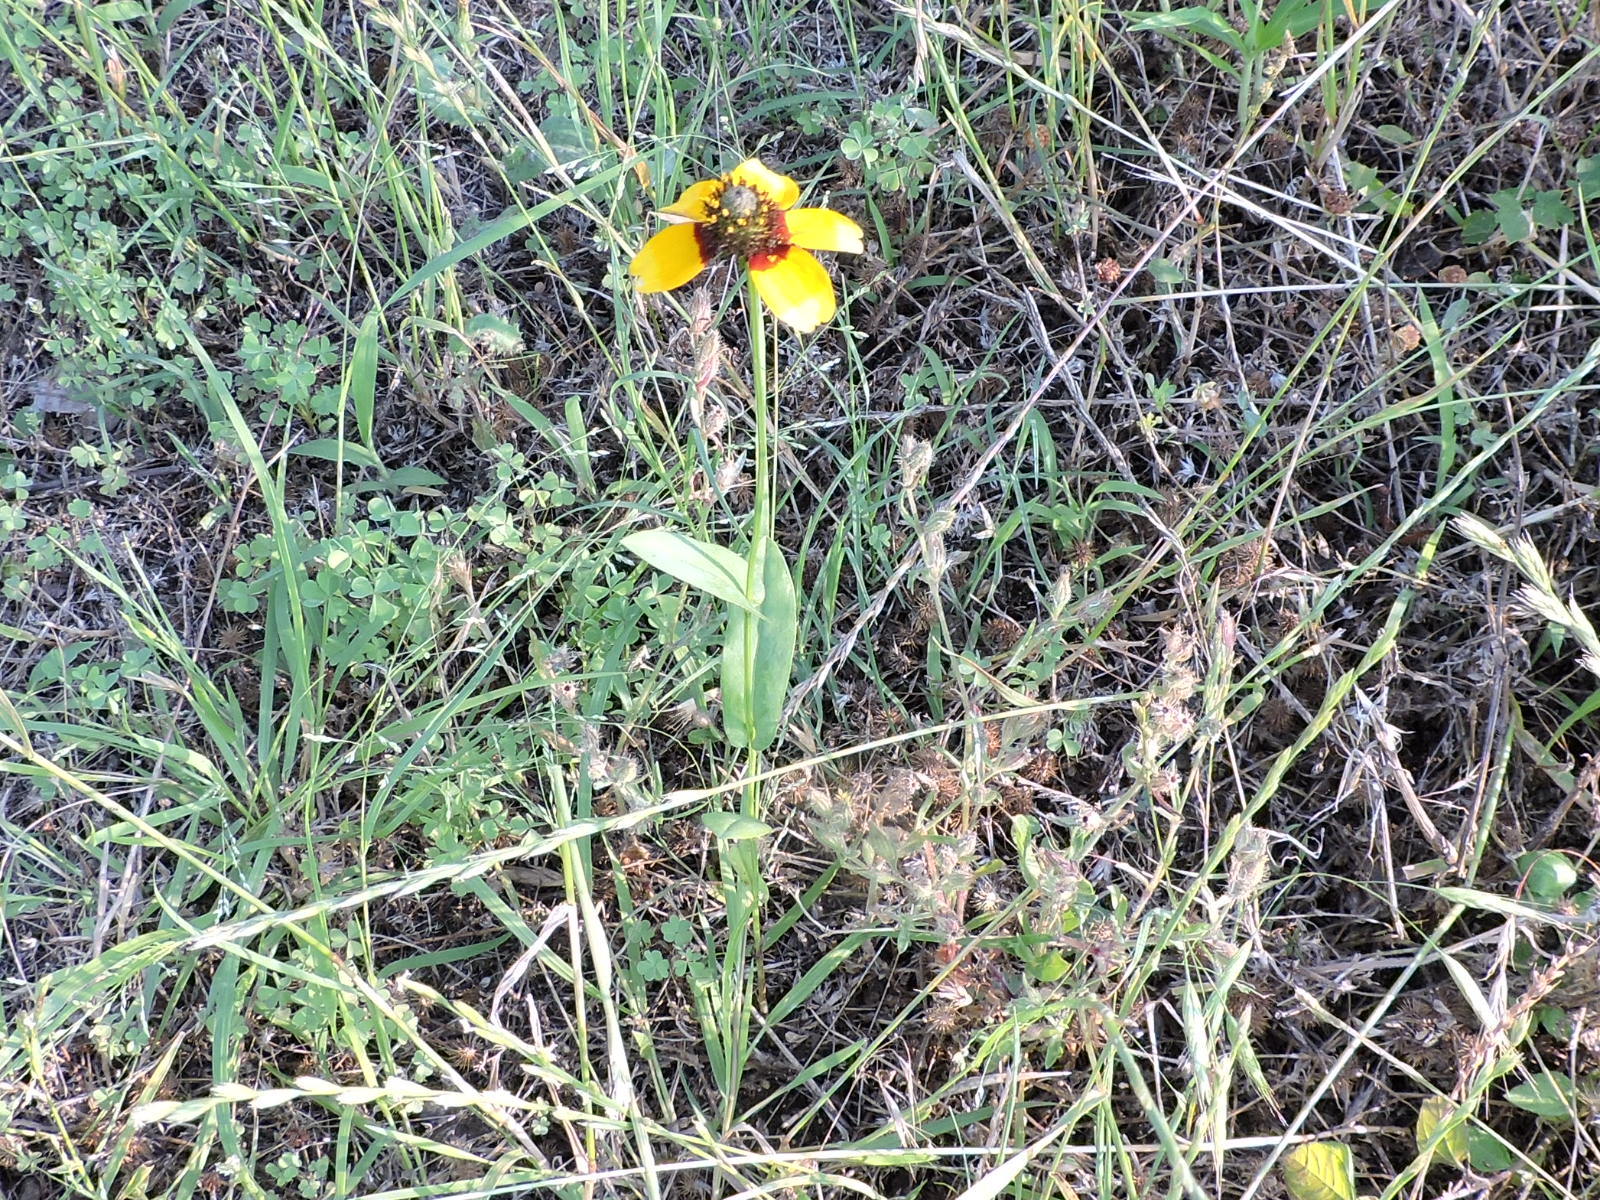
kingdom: Plantae
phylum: Tracheophyta
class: Magnoliopsida
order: Asterales
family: Asteraceae
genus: Rudbeckia
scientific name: Rudbeckia amplexicaulis
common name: Clasping-leaf coneflower
